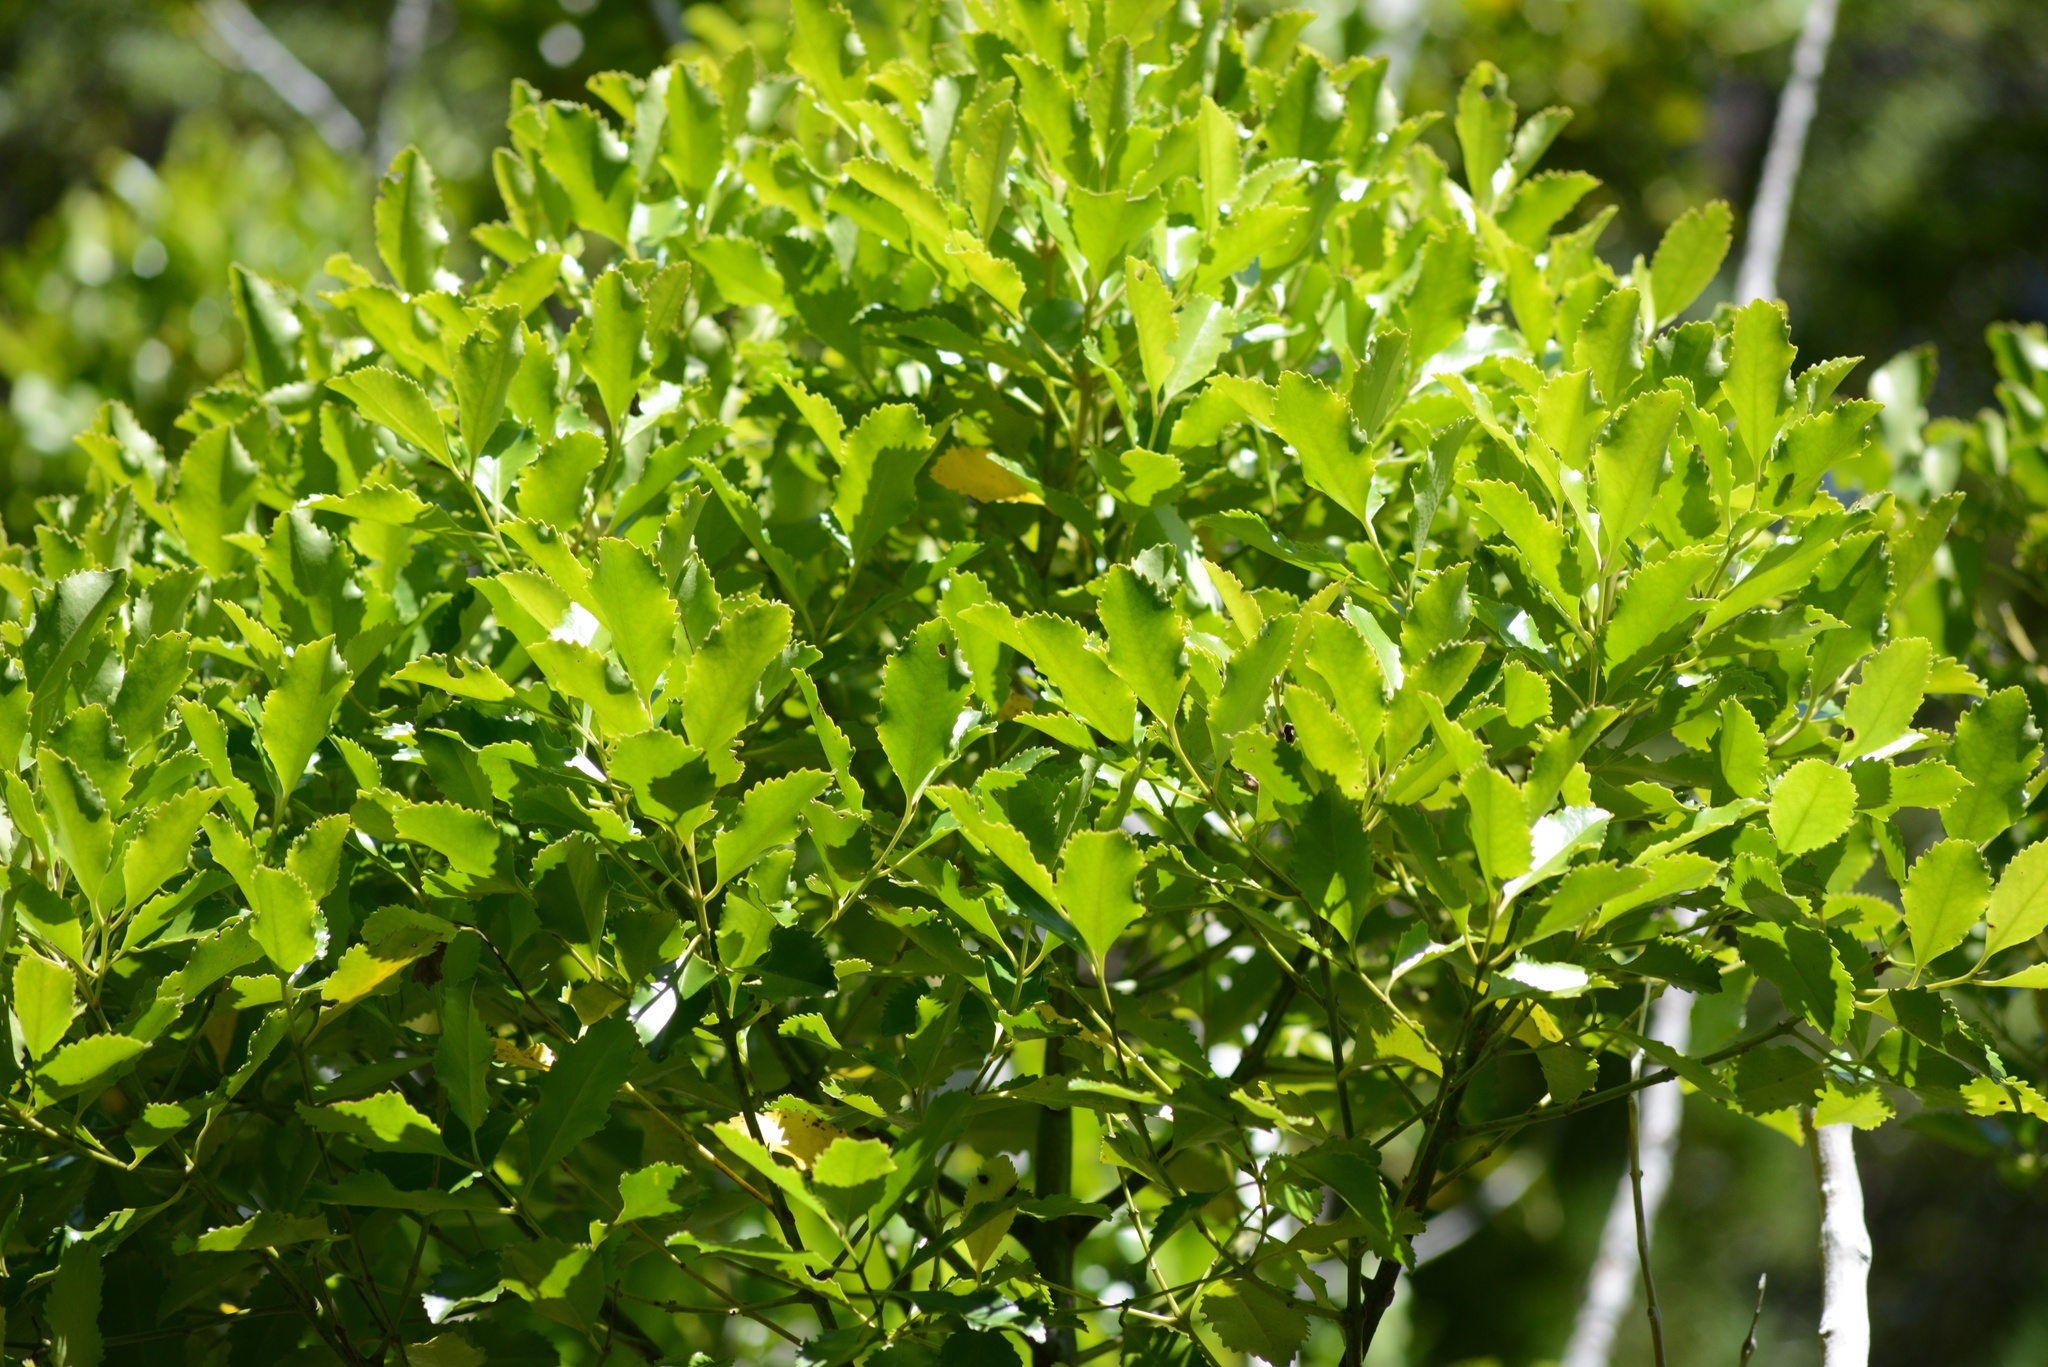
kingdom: Plantae
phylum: Tracheophyta
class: Magnoliopsida
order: Laurales
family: Atherospermataceae
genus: Laurelia
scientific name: Laurelia novae-zelandiae
